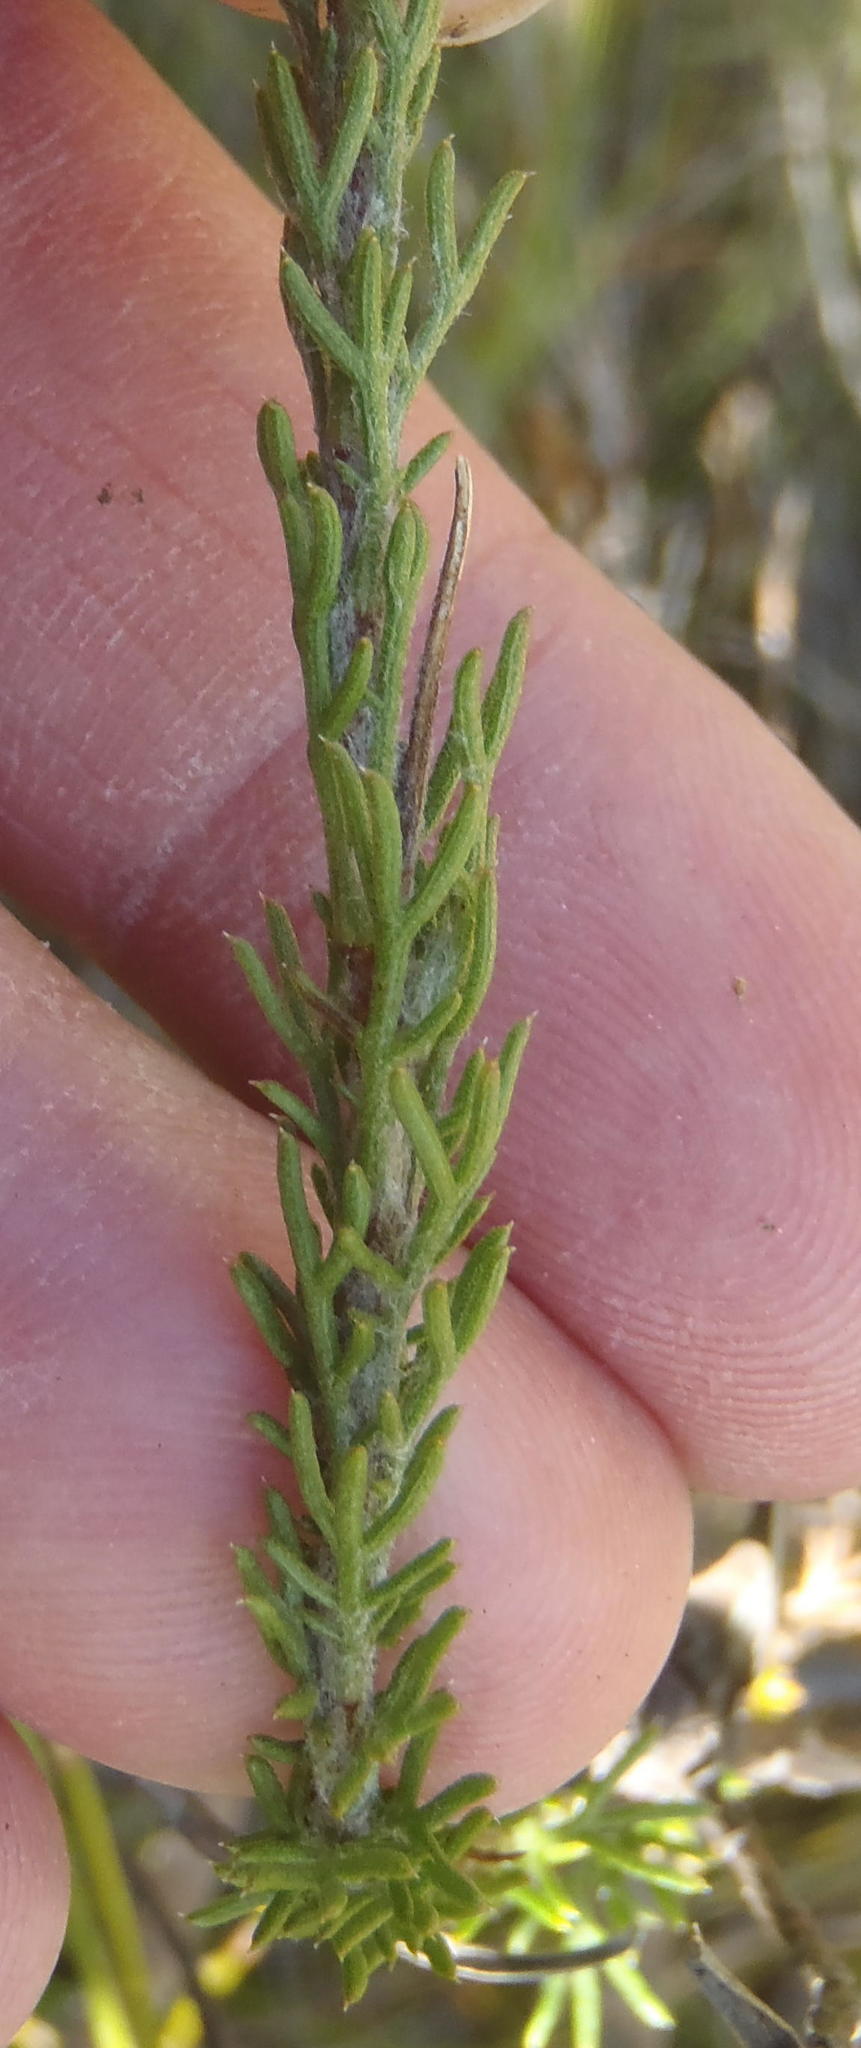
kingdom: Plantae
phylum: Tracheophyta
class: Magnoliopsida
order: Asterales
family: Asteraceae
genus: Ursinia
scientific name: Ursinia hispida
